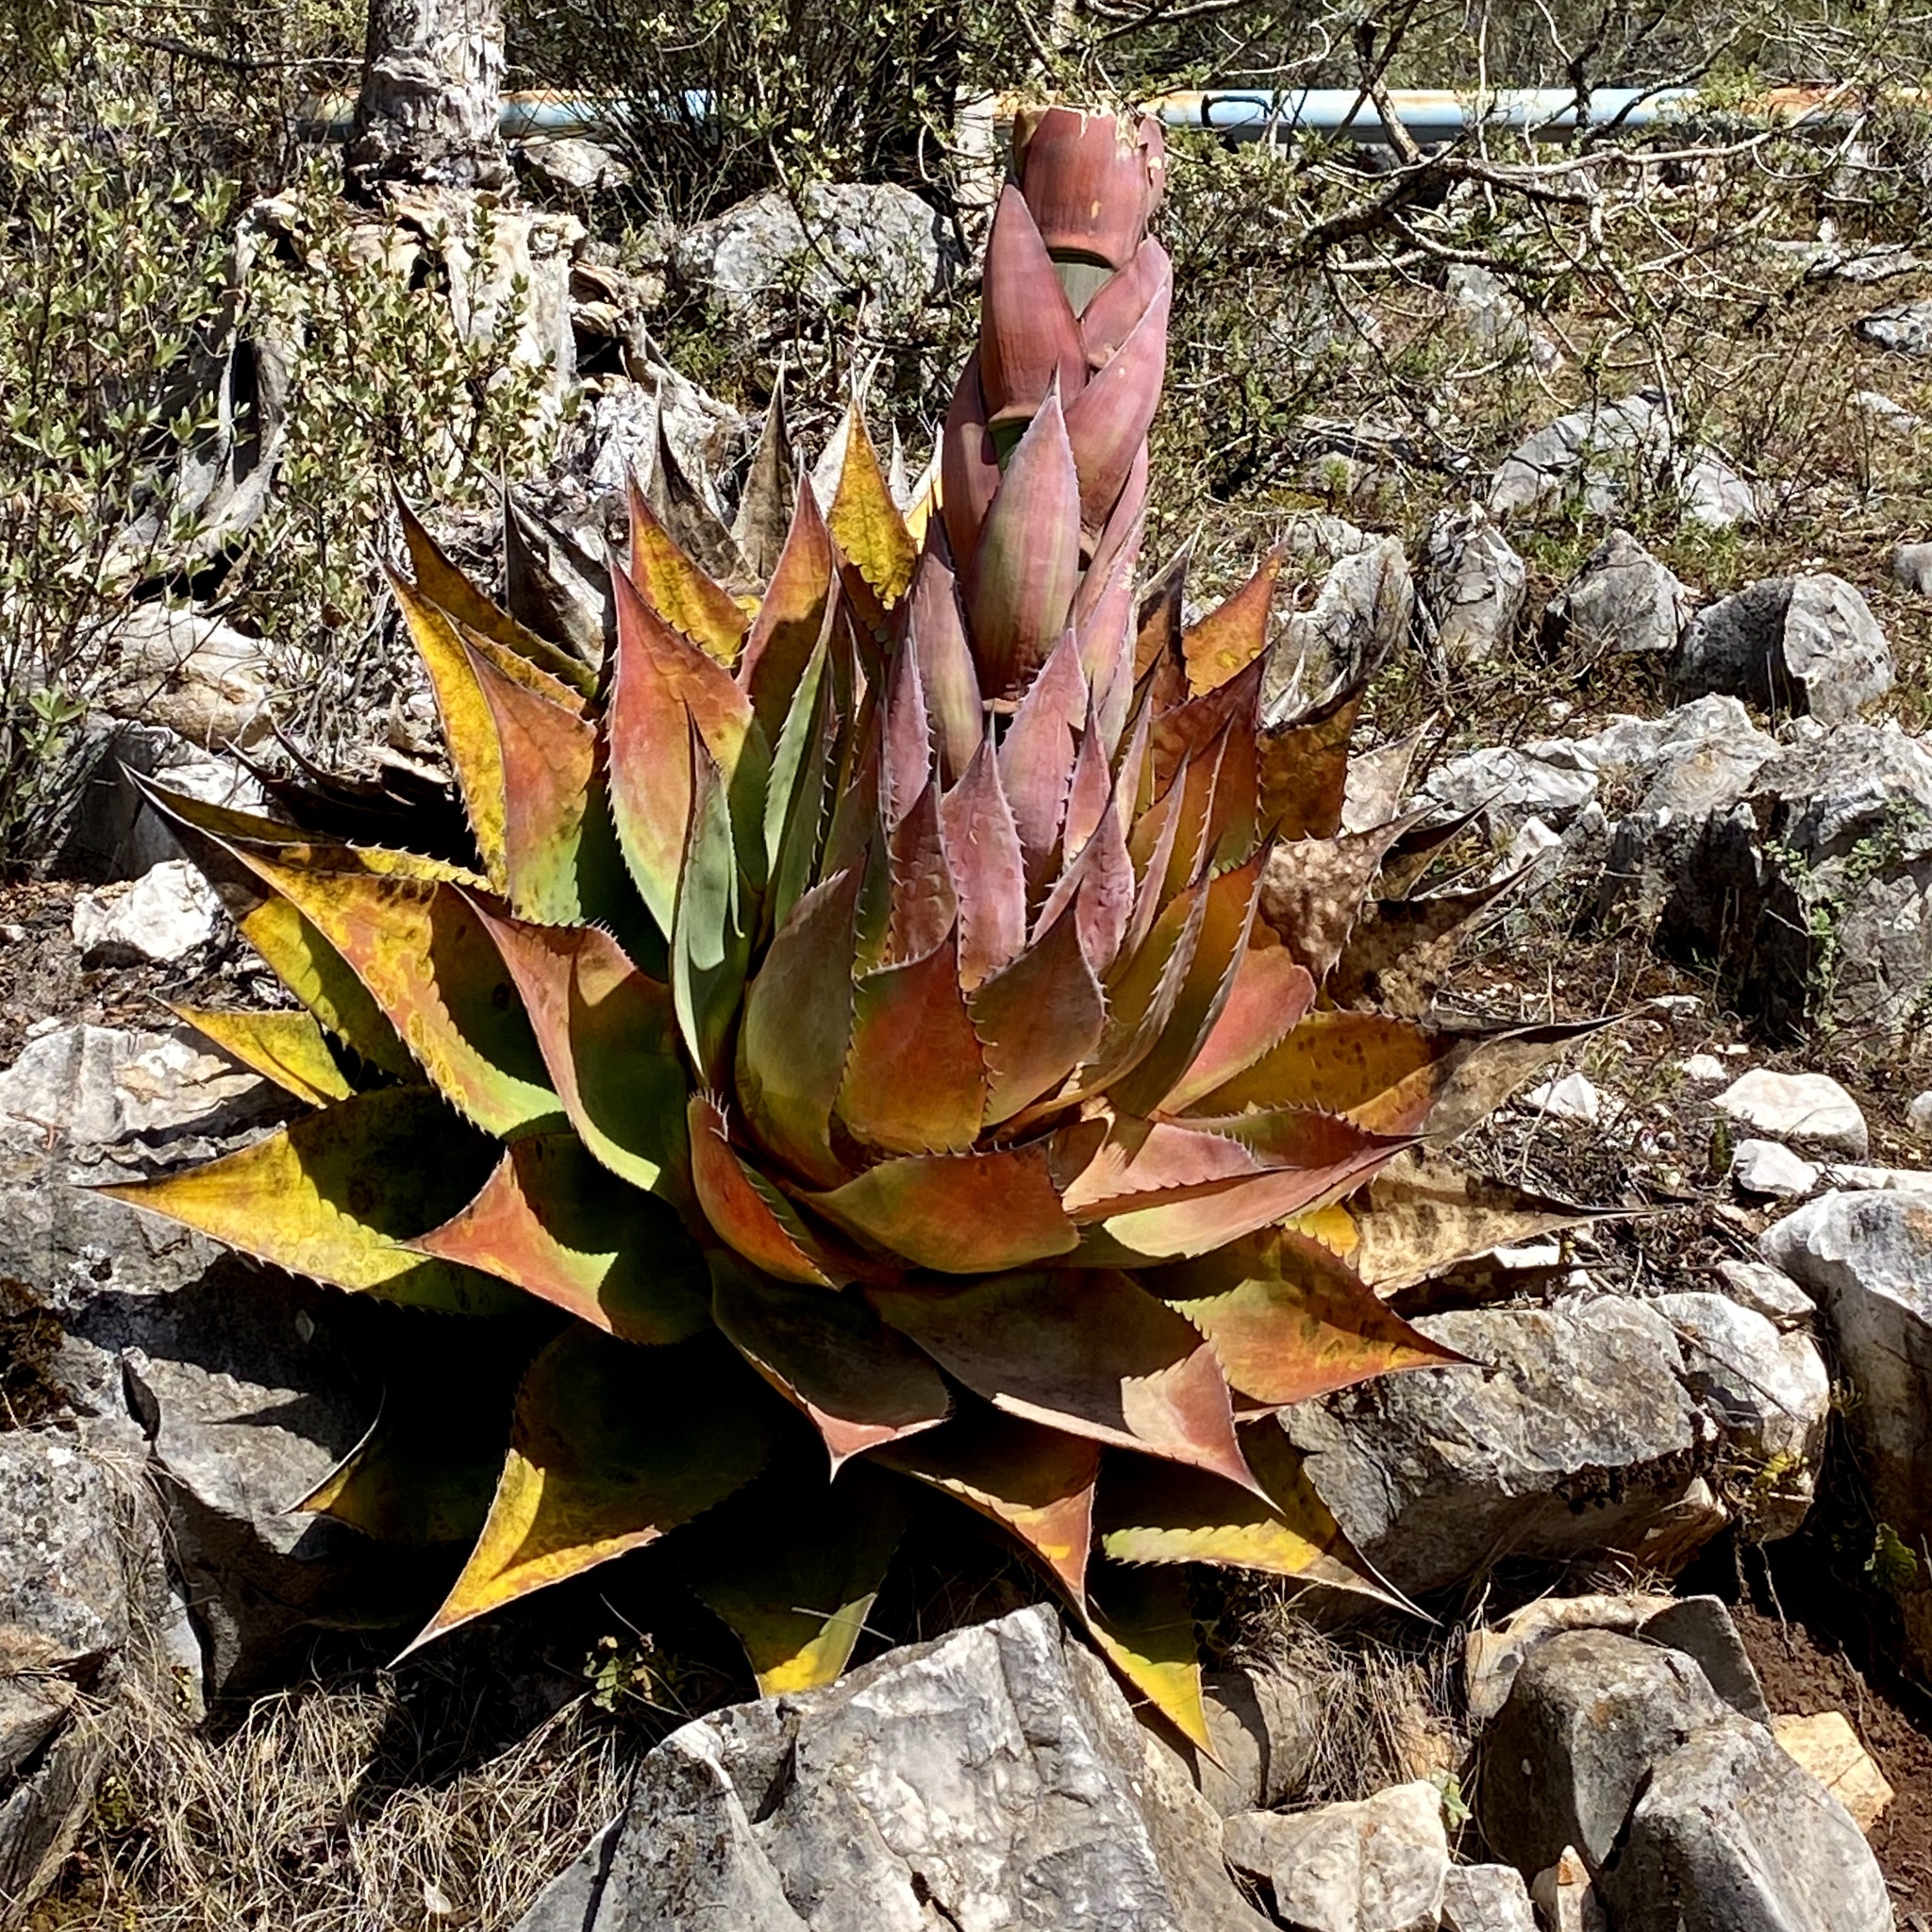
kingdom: Plantae
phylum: Tracheophyta
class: Liliopsida
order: Asparagales
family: Asparagaceae
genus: Agave
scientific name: Agave gentryi
